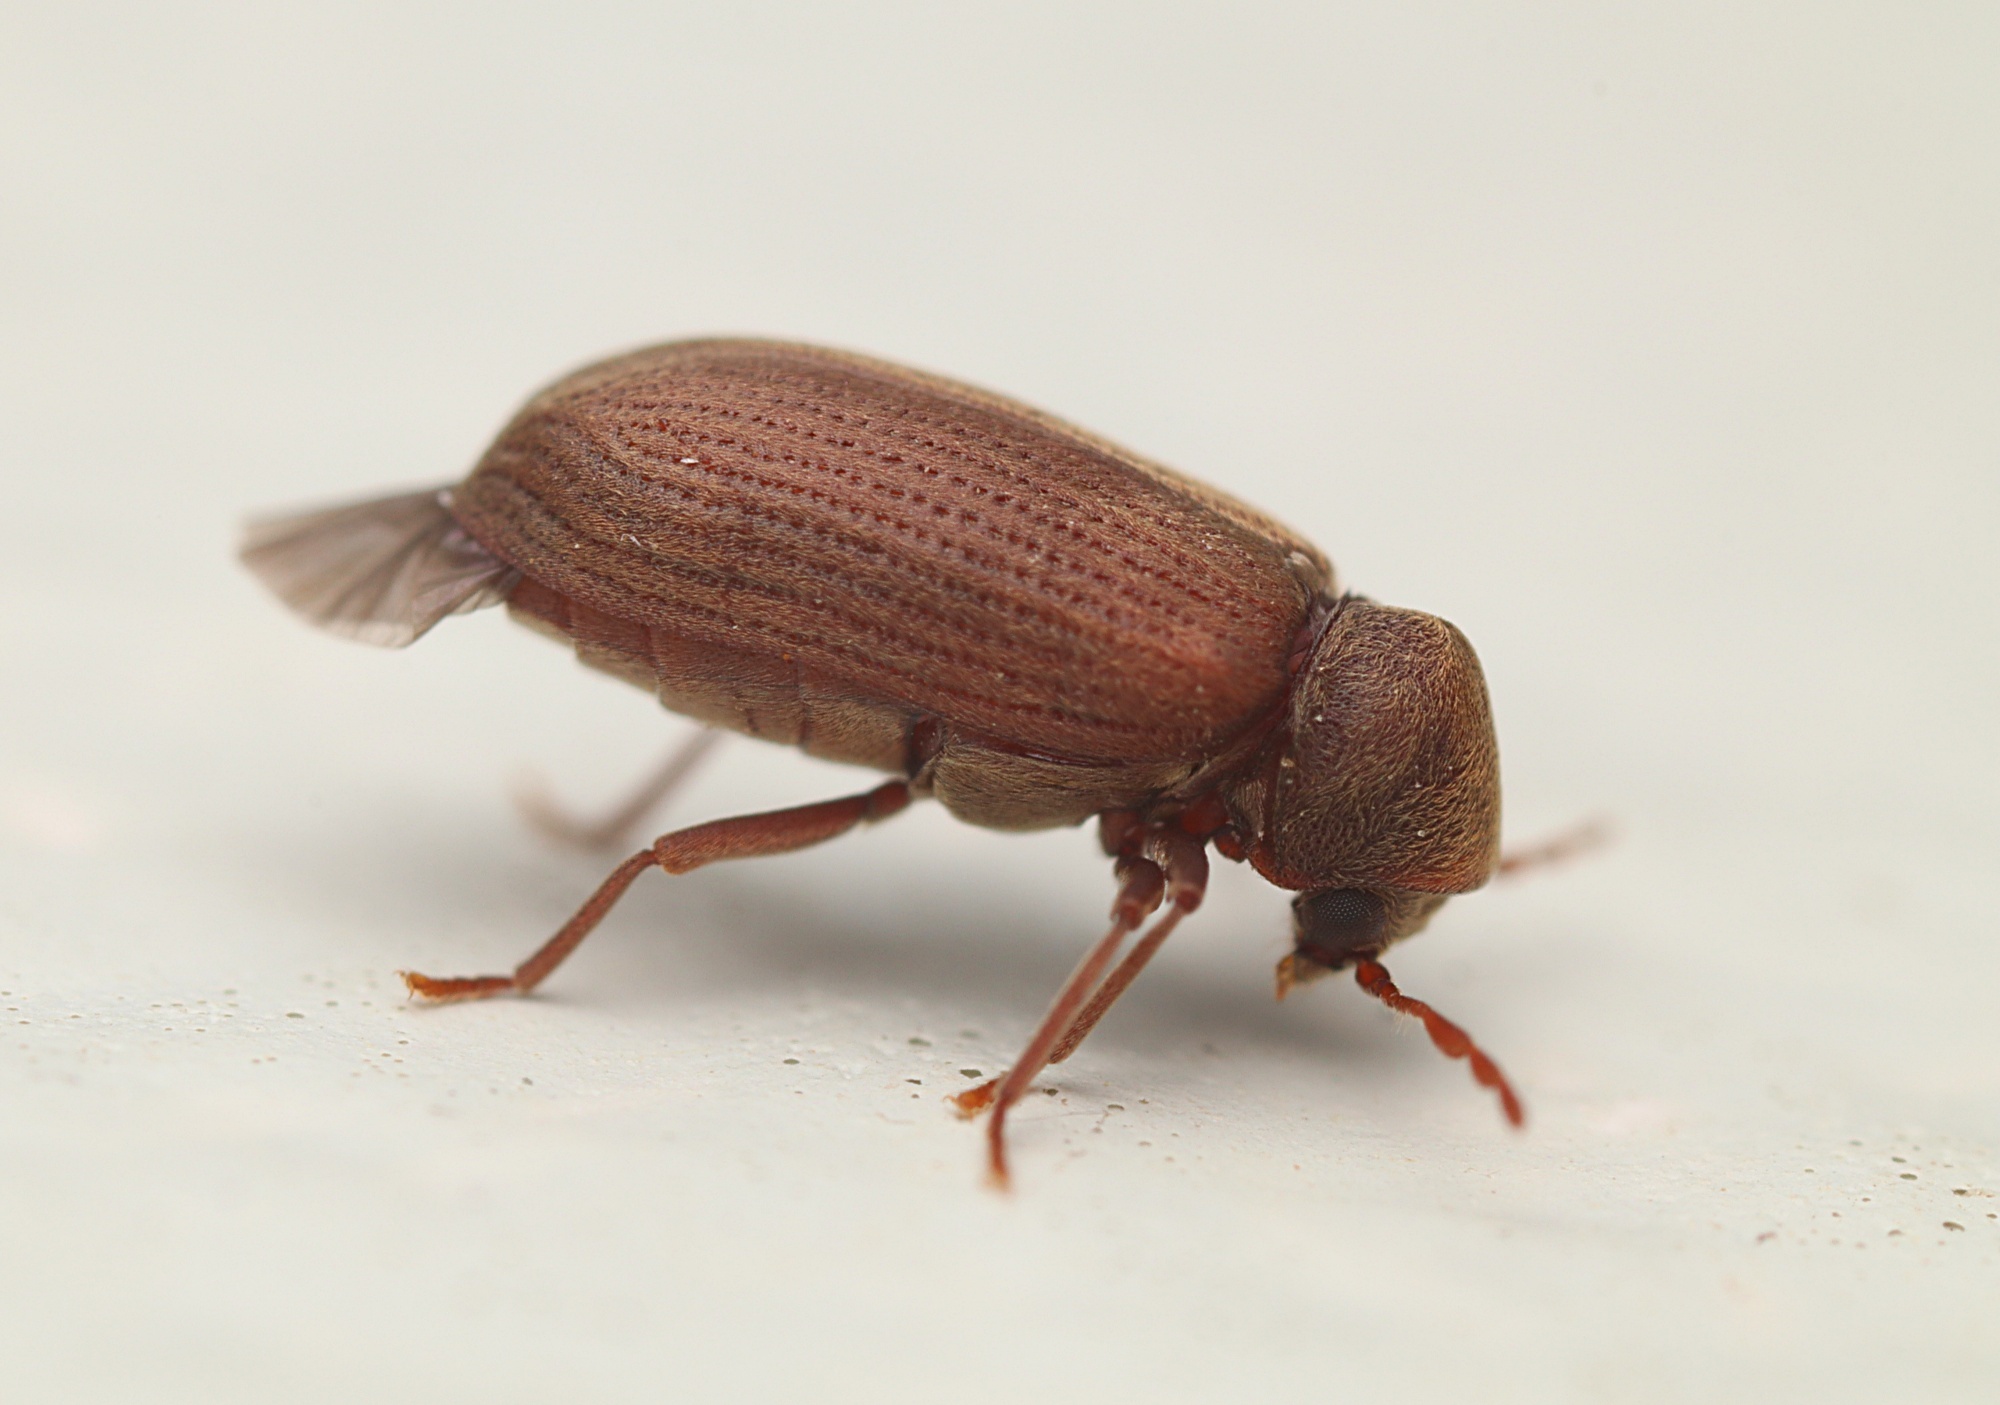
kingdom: Animalia
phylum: Arthropoda
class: Insecta
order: Coleoptera
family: Anobiidae
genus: Anobium
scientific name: Anobium punctatum
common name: Furniture beetle
